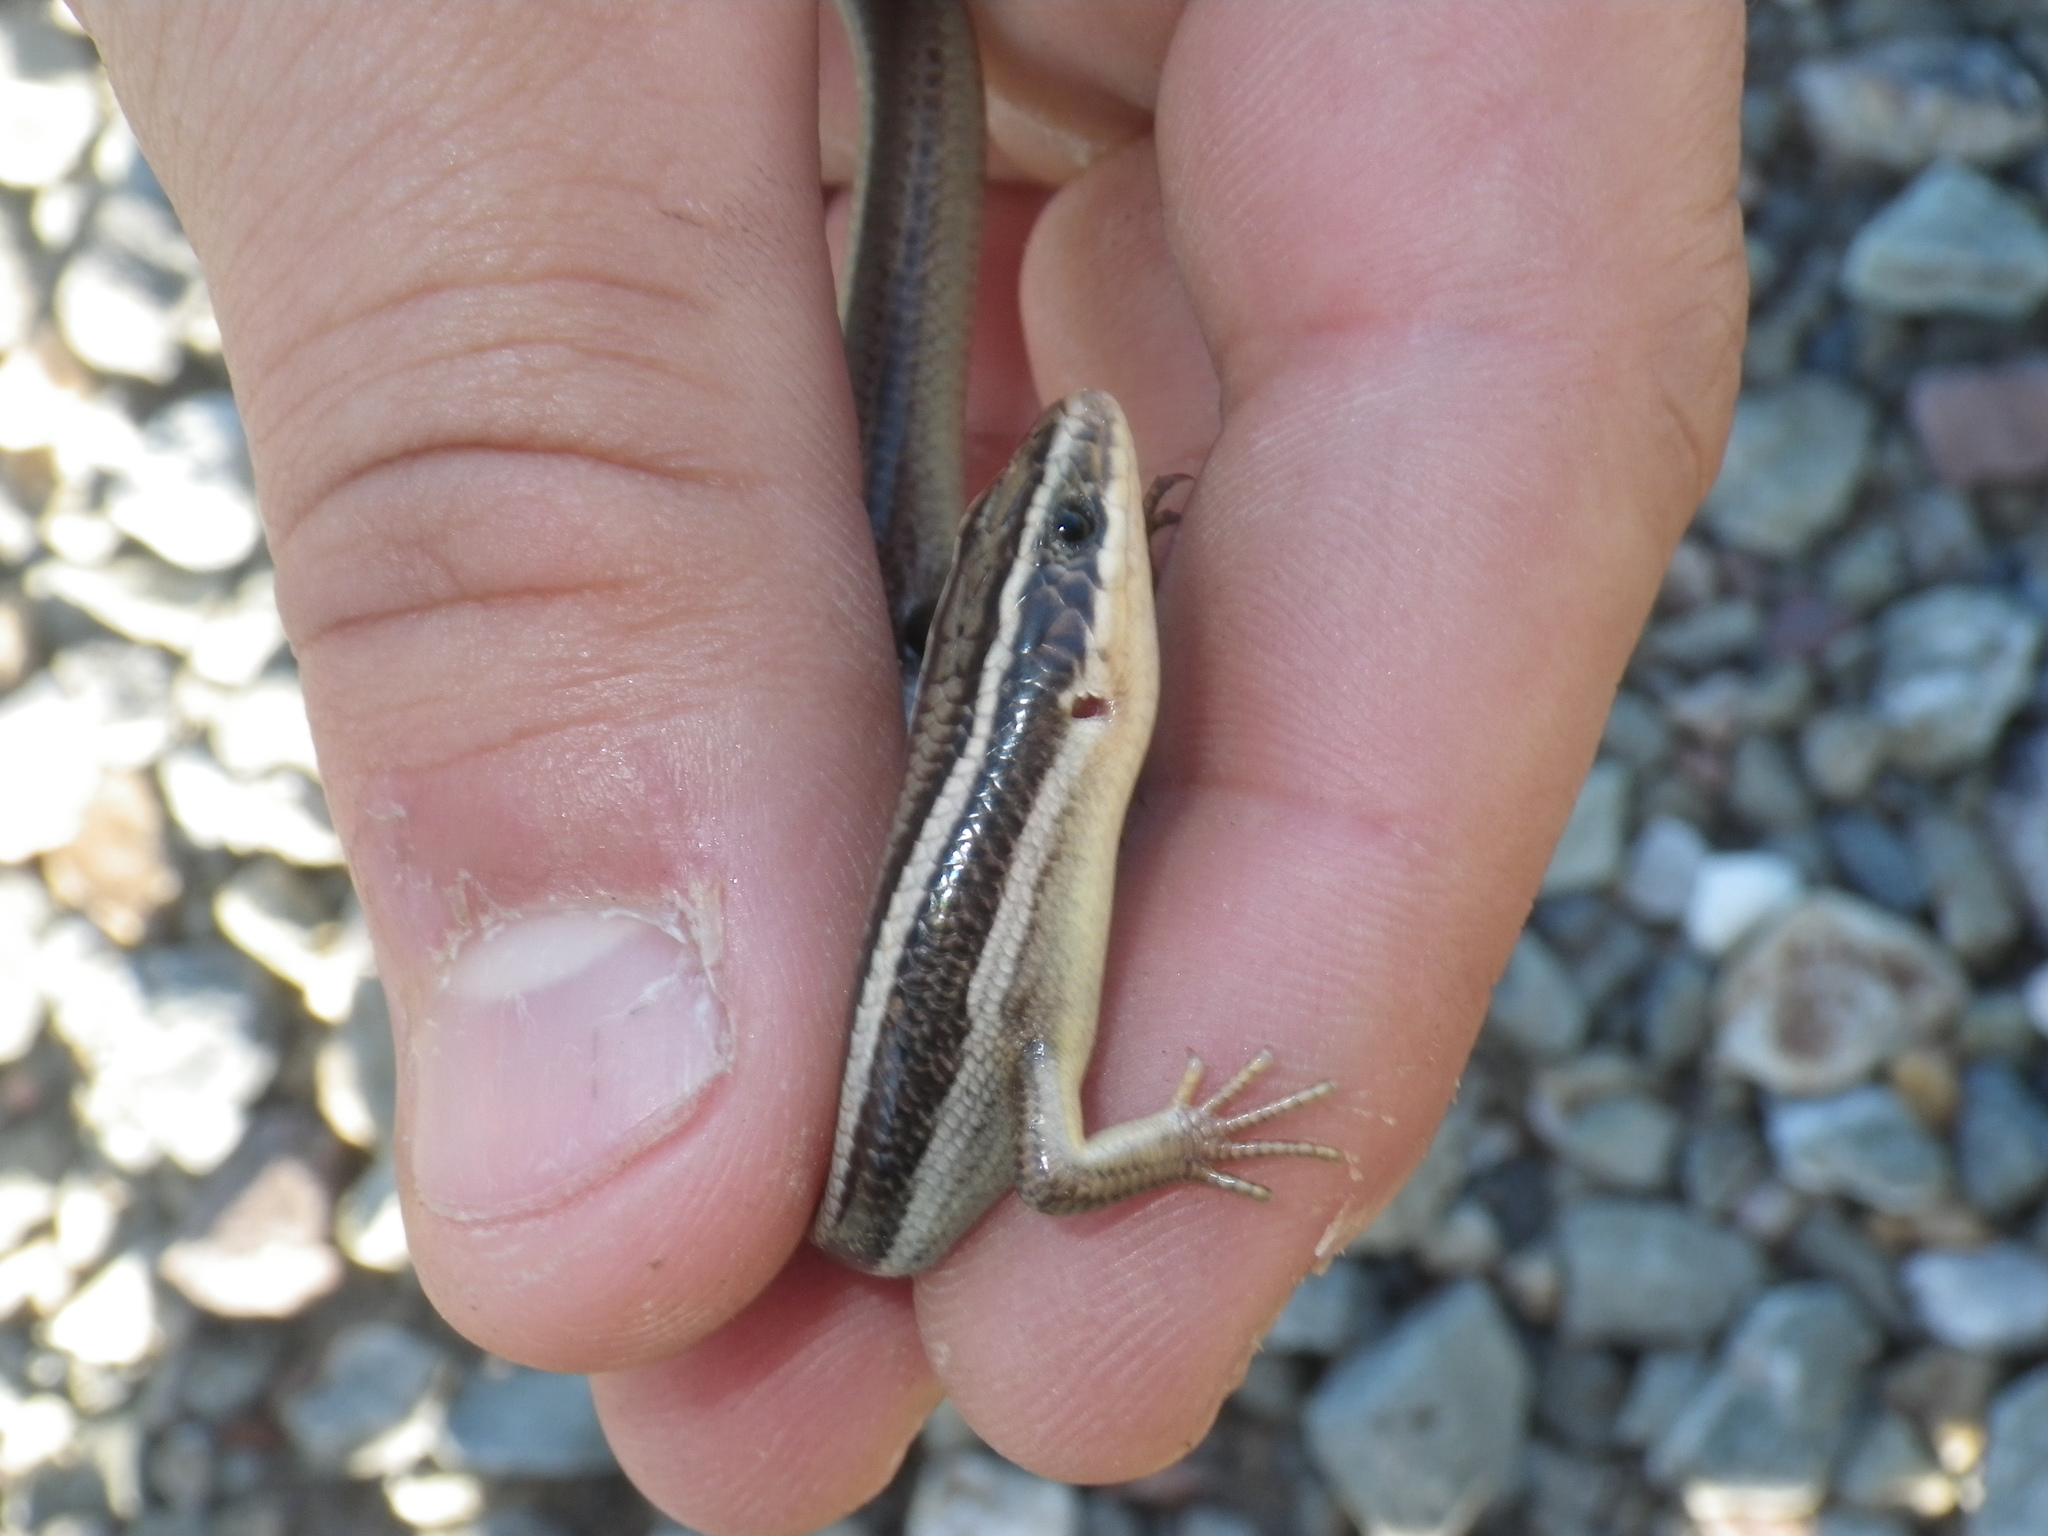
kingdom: Animalia
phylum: Chordata
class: Squamata
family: Scincidae
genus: Plestiodon
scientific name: Plestiodon gilberti
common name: Gilbert's skink
